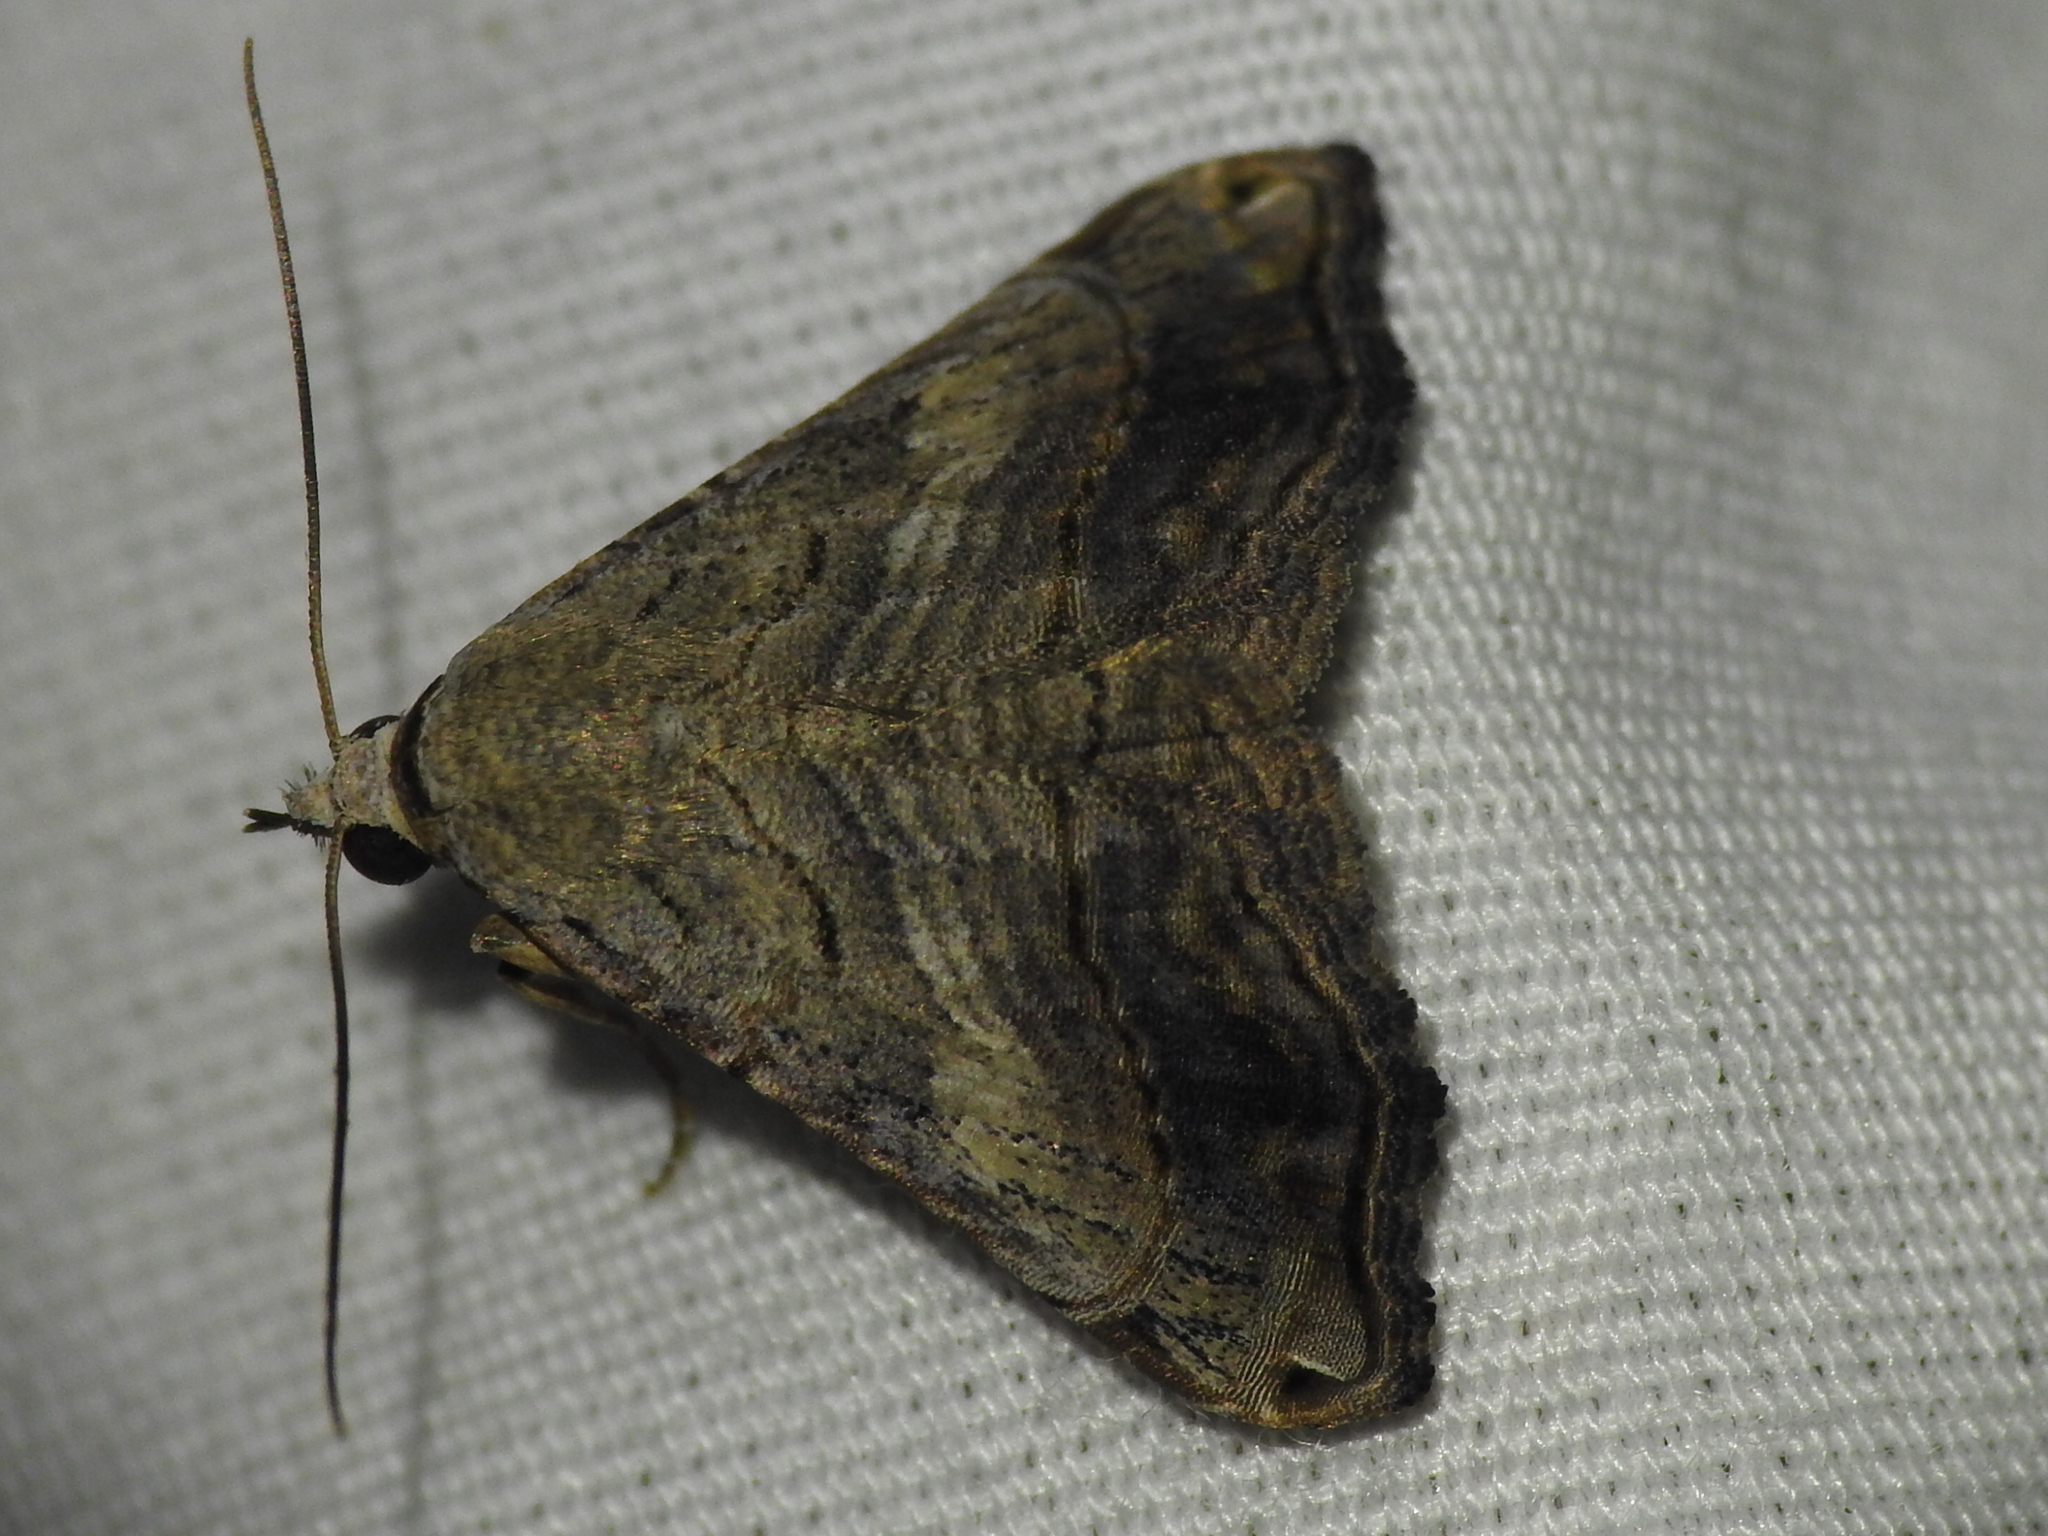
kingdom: Animalia
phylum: Arthropoda
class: Insecta
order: Lepidoptera
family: Erebidae
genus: Tyrissa
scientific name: Tyrissa multilinea
